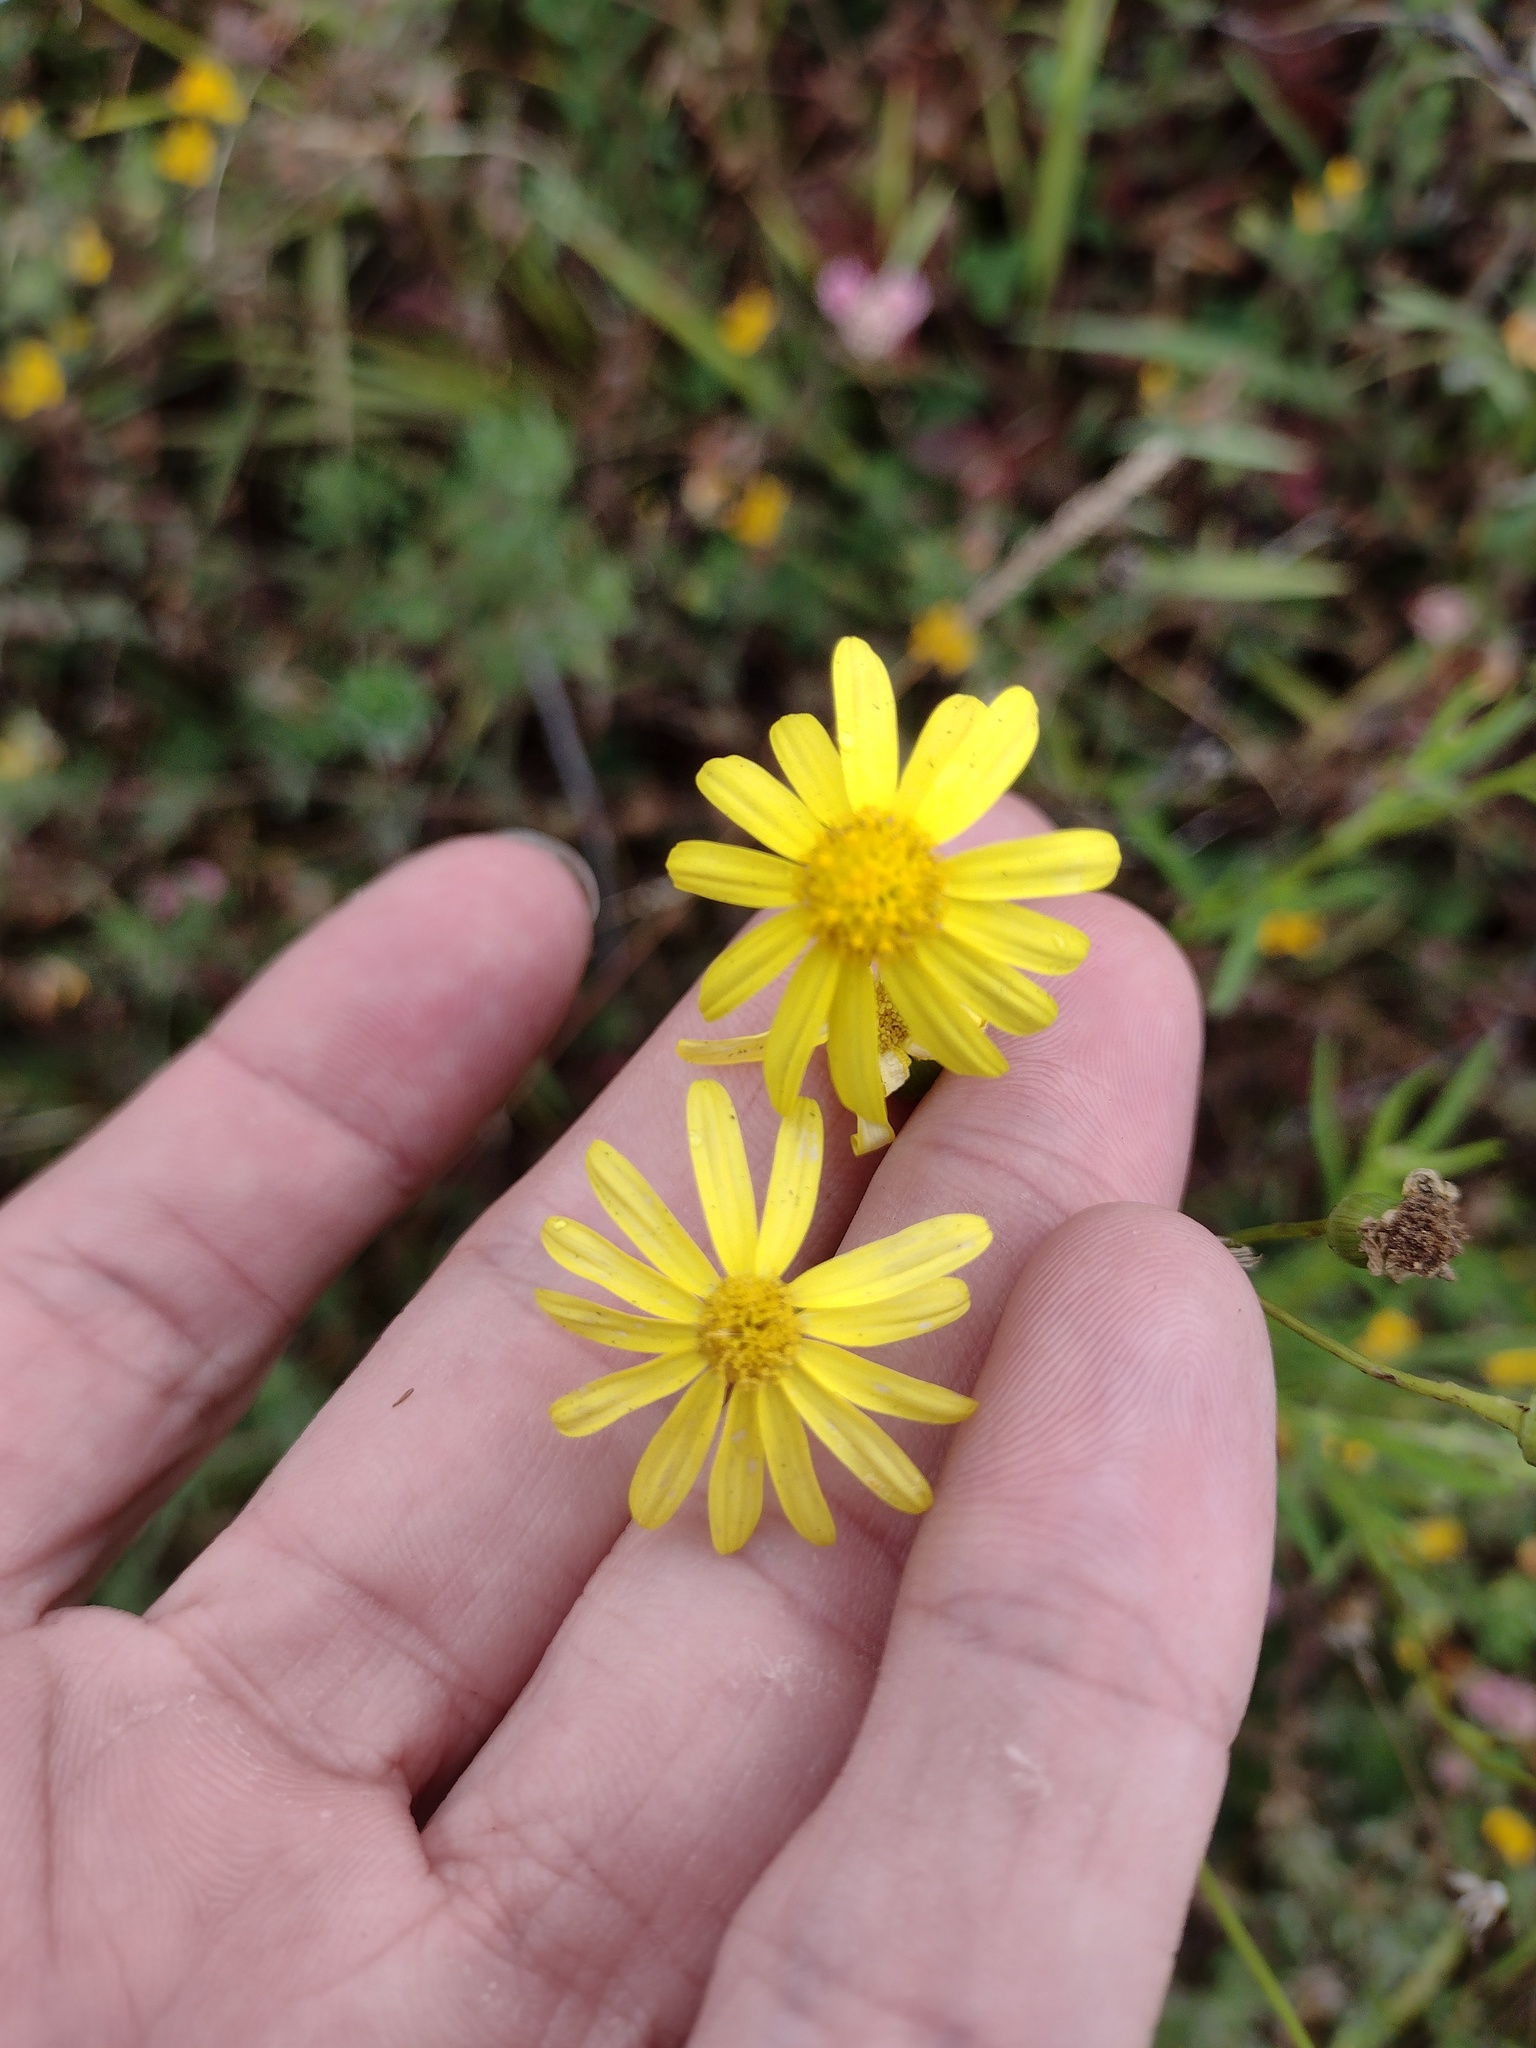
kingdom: Plantae
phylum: Tracheophyta
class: Magnoliopsida
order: Asterales
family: Asteraceae
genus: Senecio
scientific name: Senecio madagascariensis
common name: Madagascar ragwort
